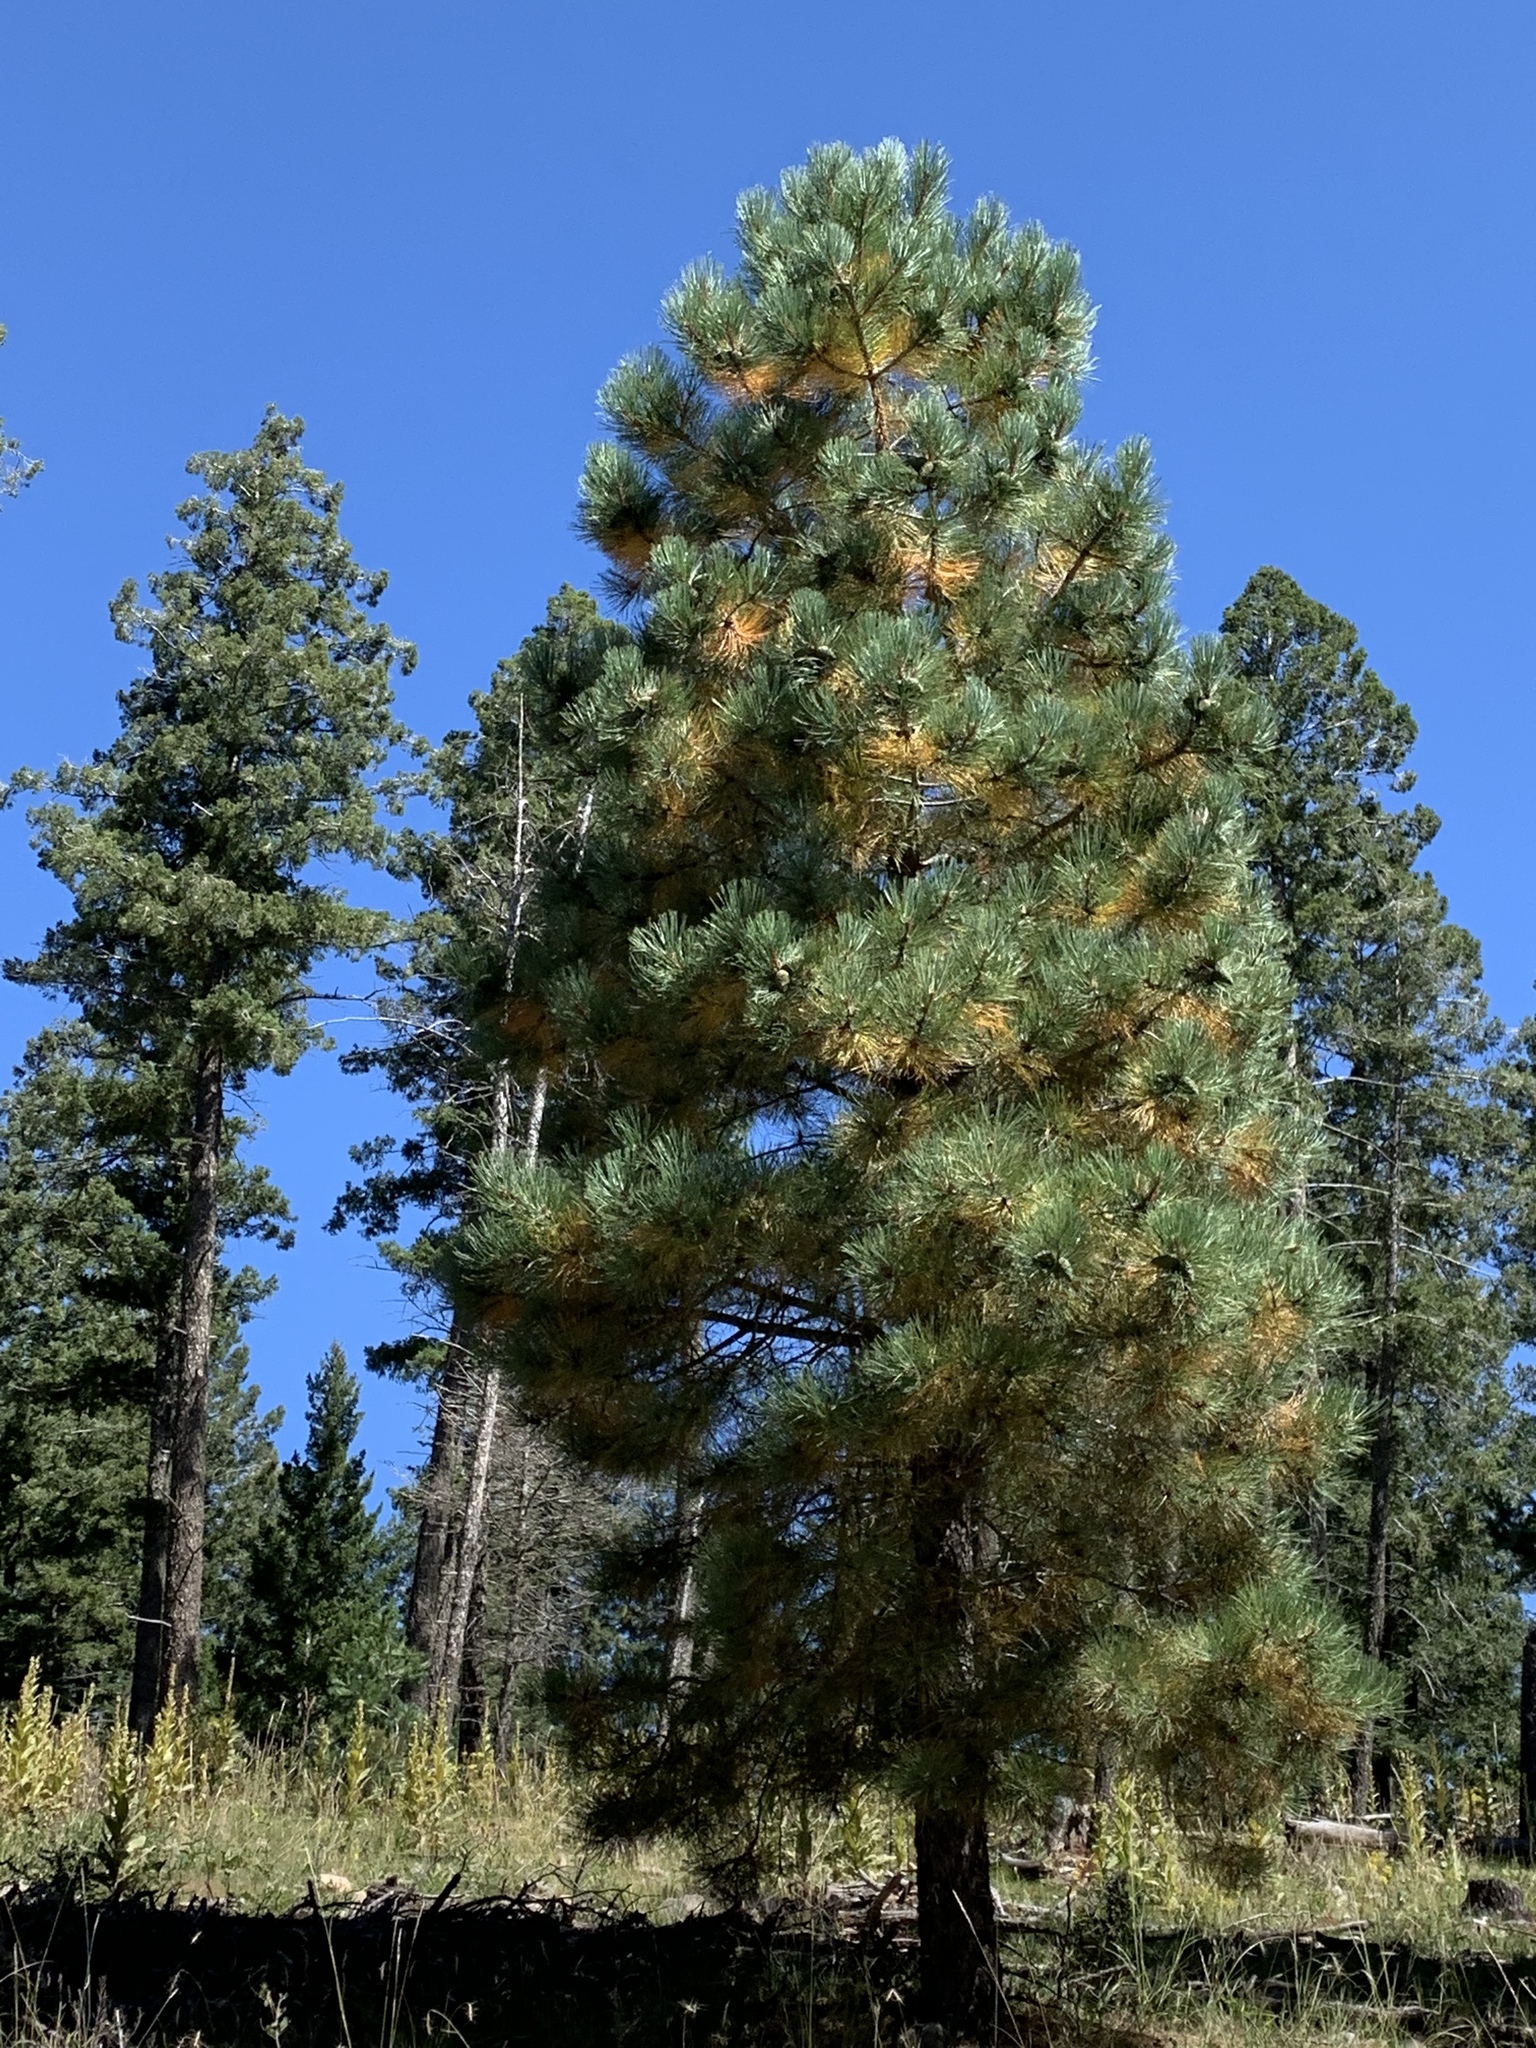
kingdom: Plantae
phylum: Tracheophyta
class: Pinopsida
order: Pinales
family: Pinaceae
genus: Pinus
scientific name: Pinus ponderosa
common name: Western yellow-pine
